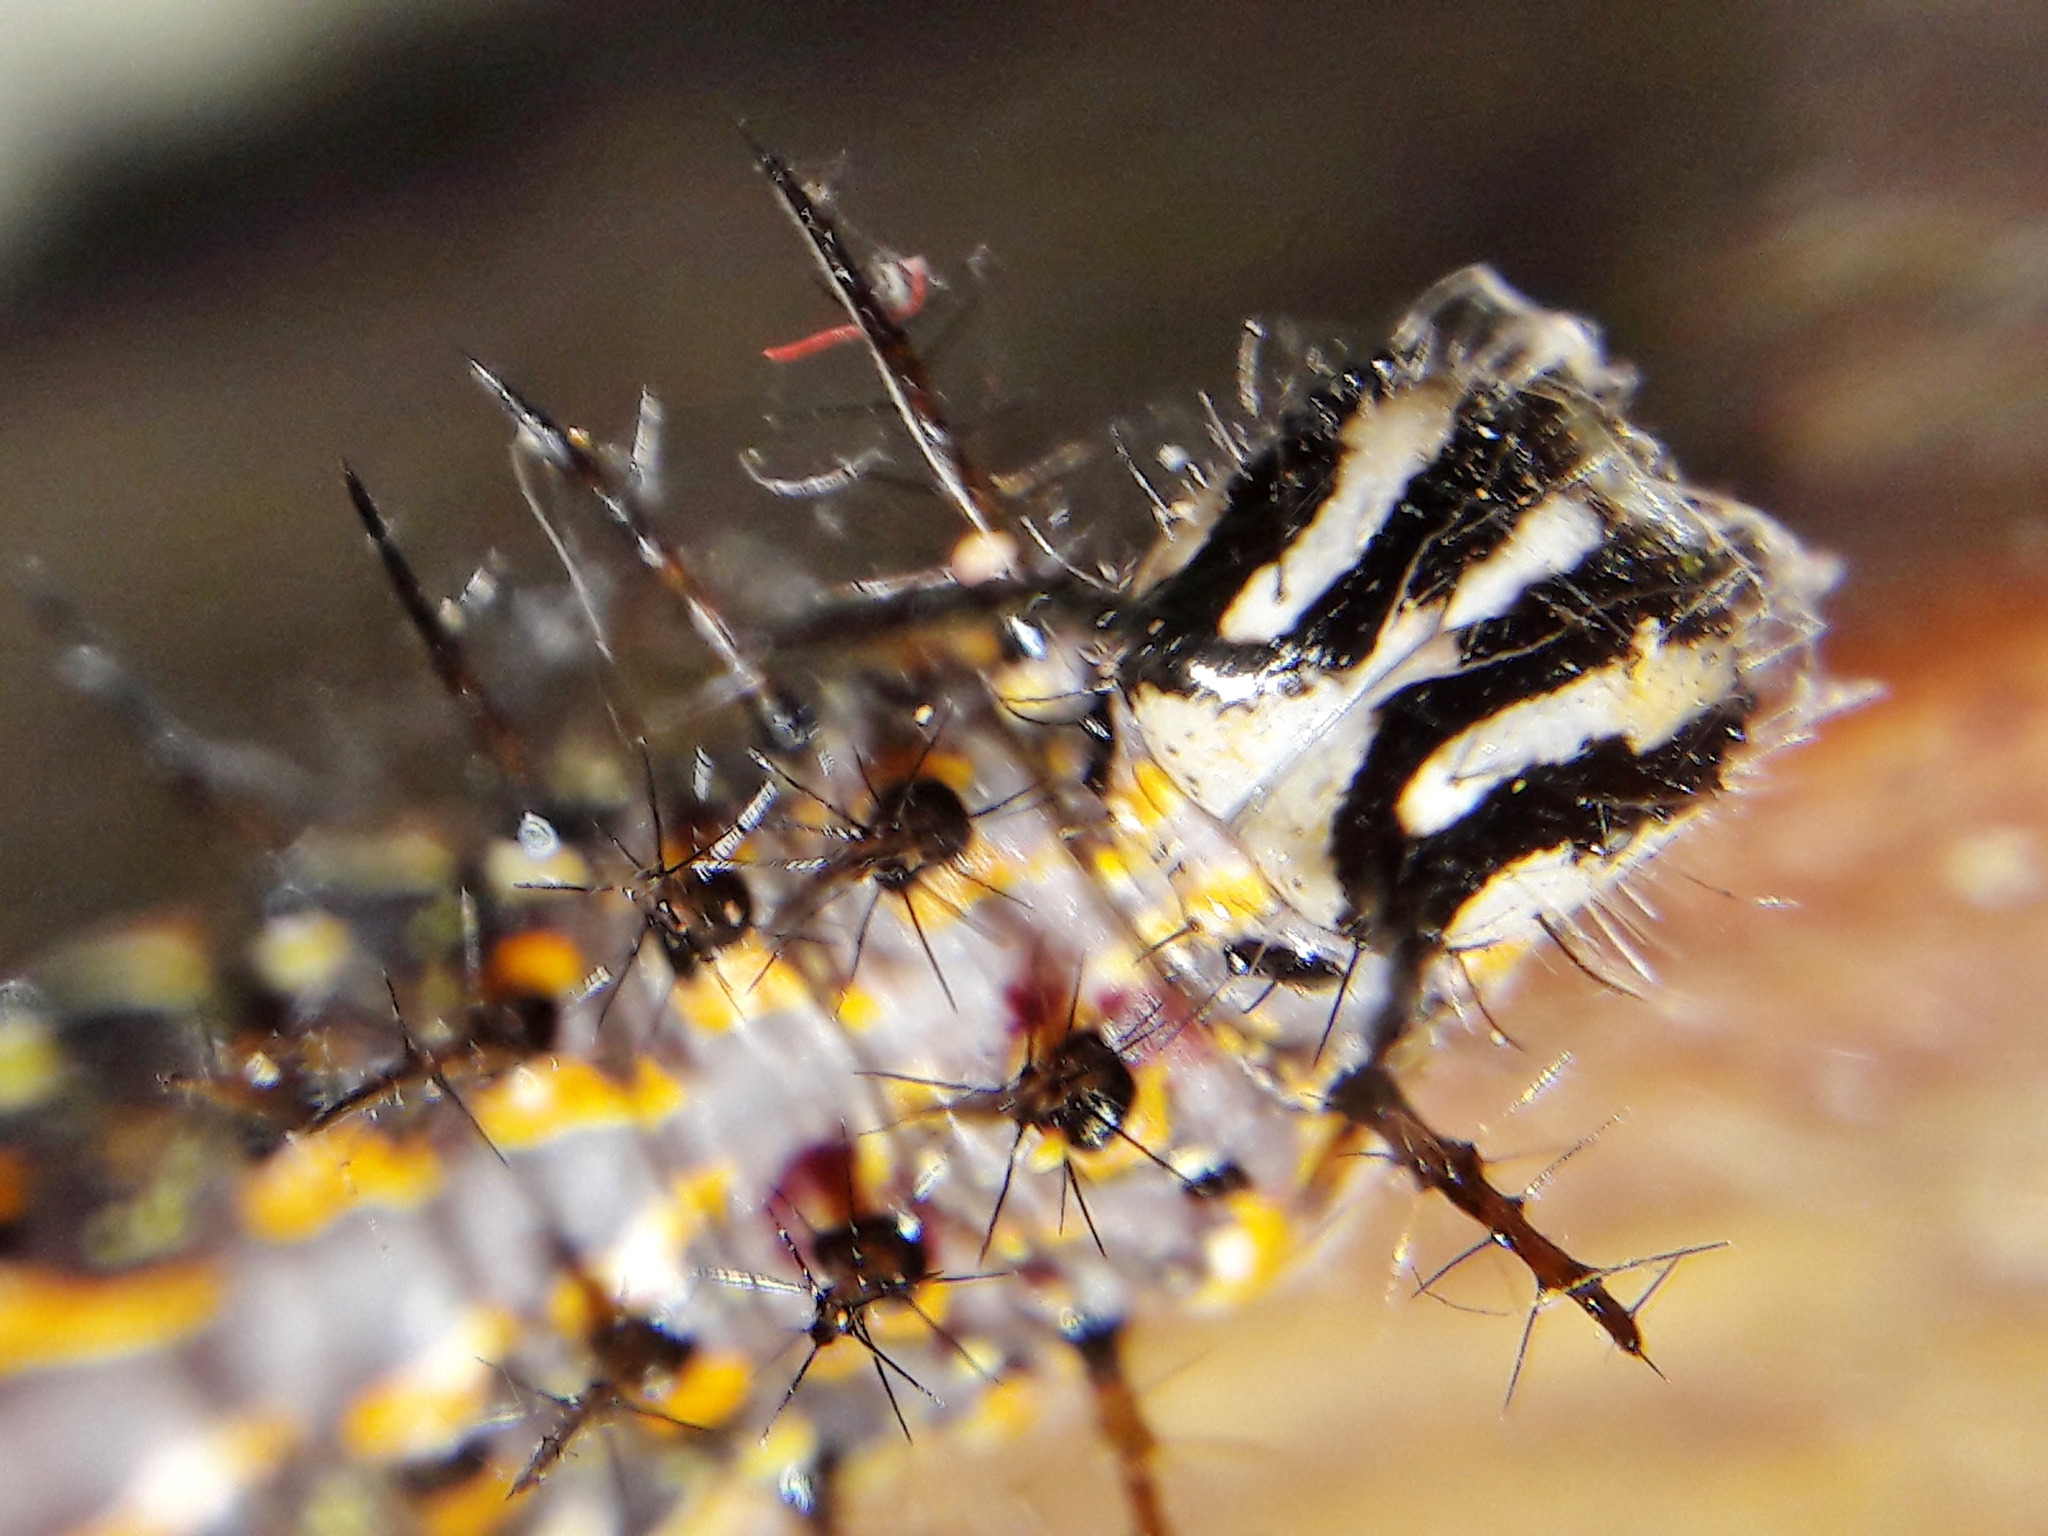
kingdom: Animalia
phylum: Arthropoda
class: Insecta
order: Lepidoptera
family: Nymphalidae
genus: Dione
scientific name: Dione vanillae
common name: Gulf fritillary
